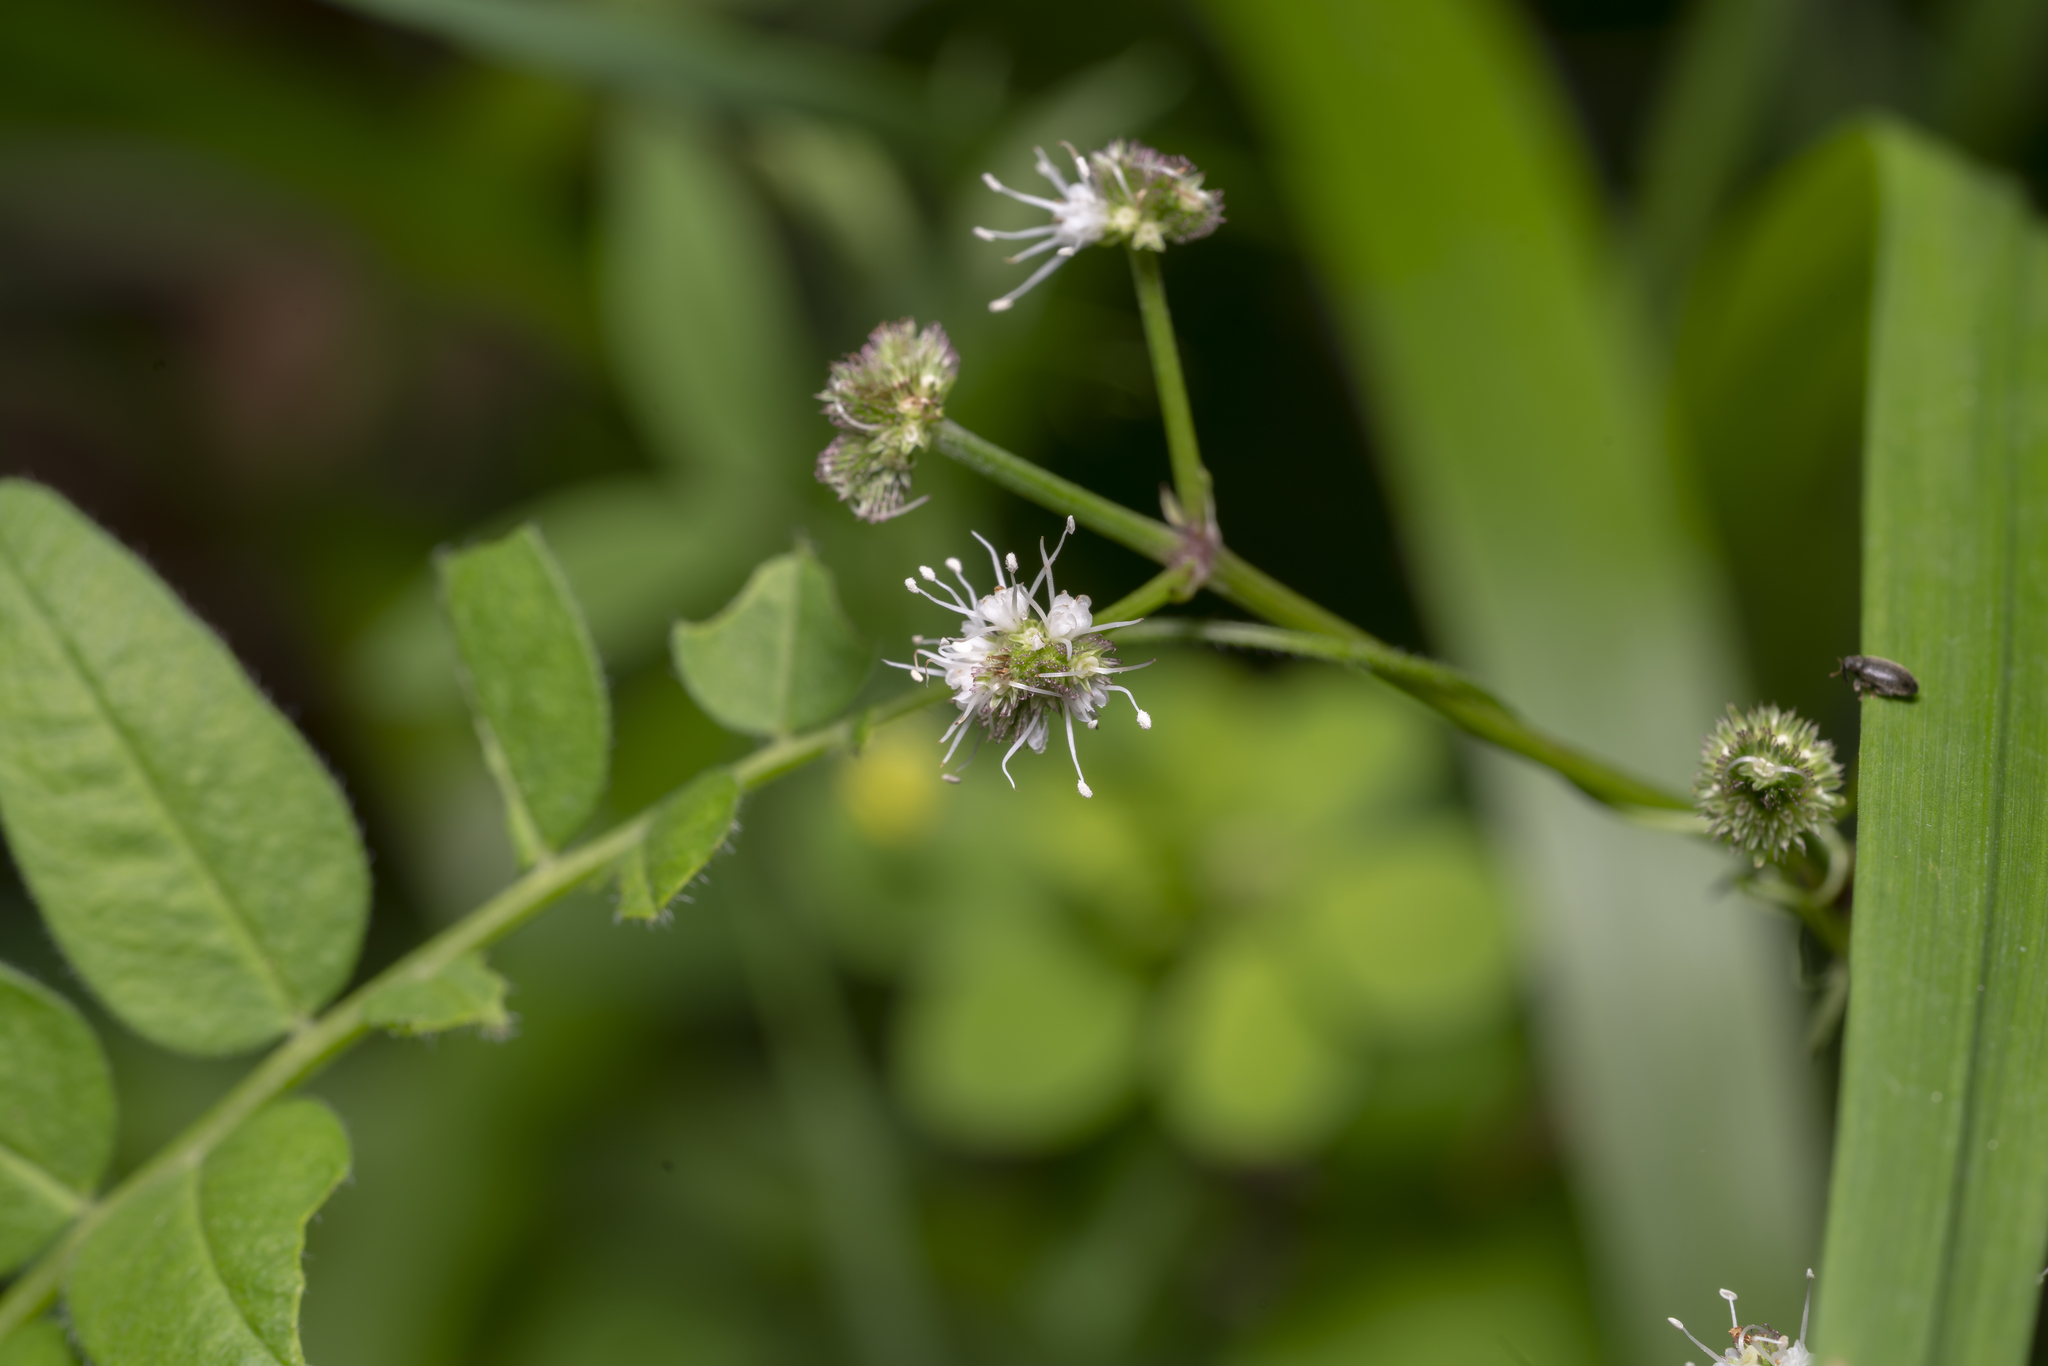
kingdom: Plantae
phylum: Tracheophyta
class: Magnoliopsida
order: Apiales
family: Apiaceae
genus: Sanicula
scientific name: Sanicula europaea
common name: Sanicle
